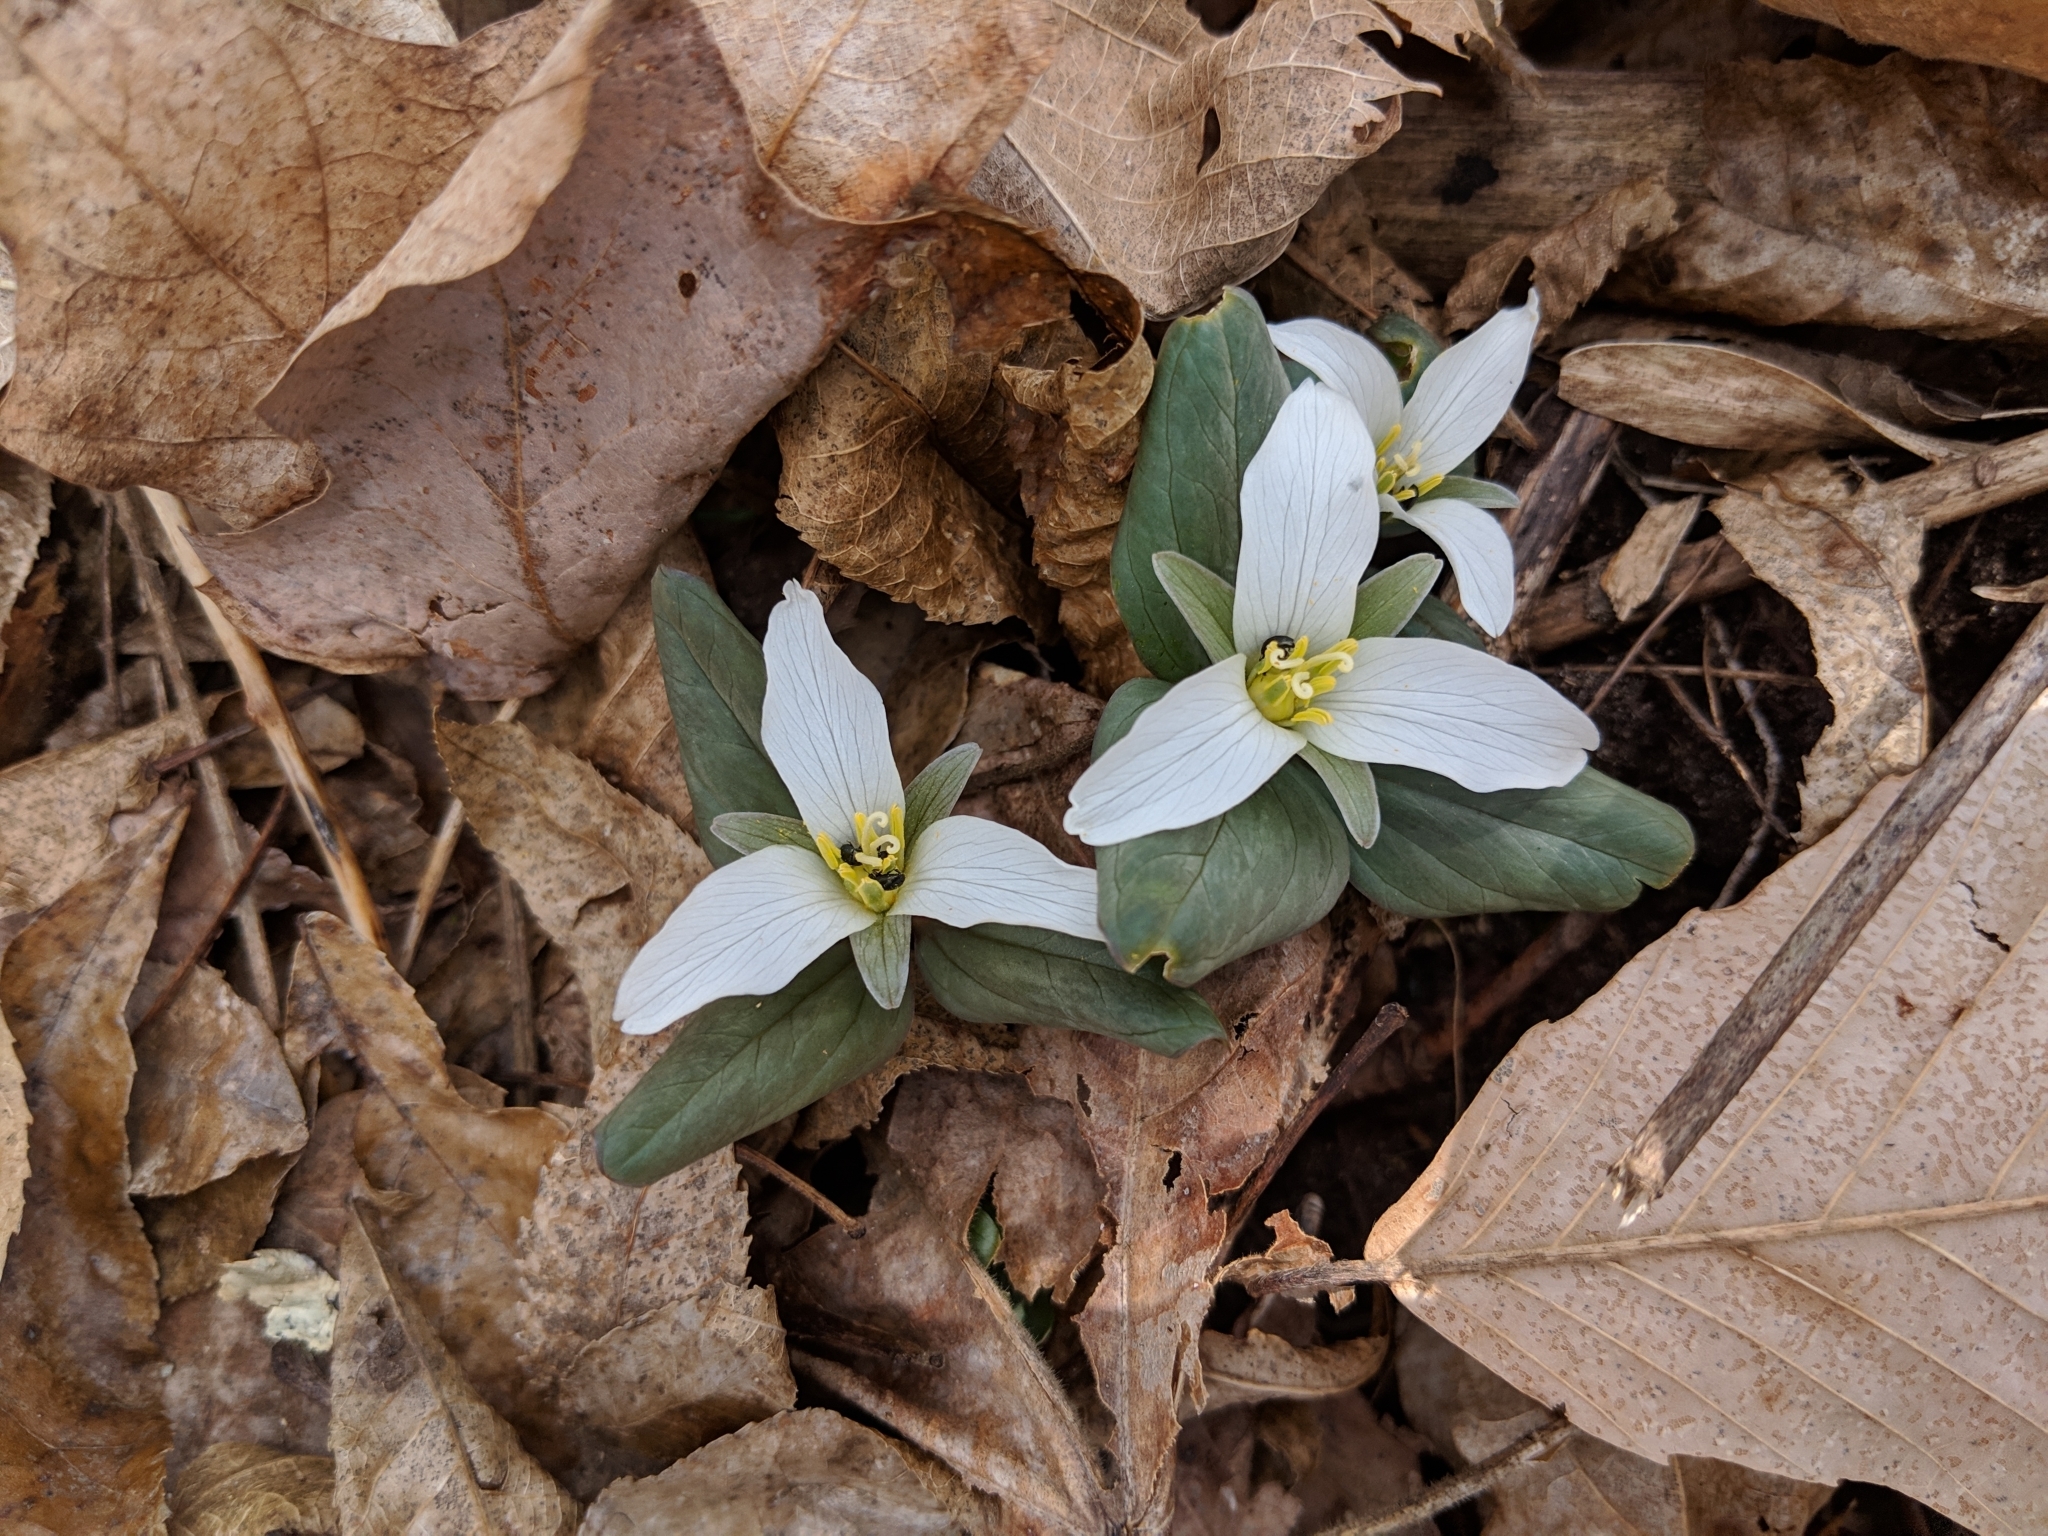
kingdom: Plantae
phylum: Tracheophyta
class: Liliopsida
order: Liliales
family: Melanthiaceae
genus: Trillium
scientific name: Trillium nivale
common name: Dwarf white trillium
